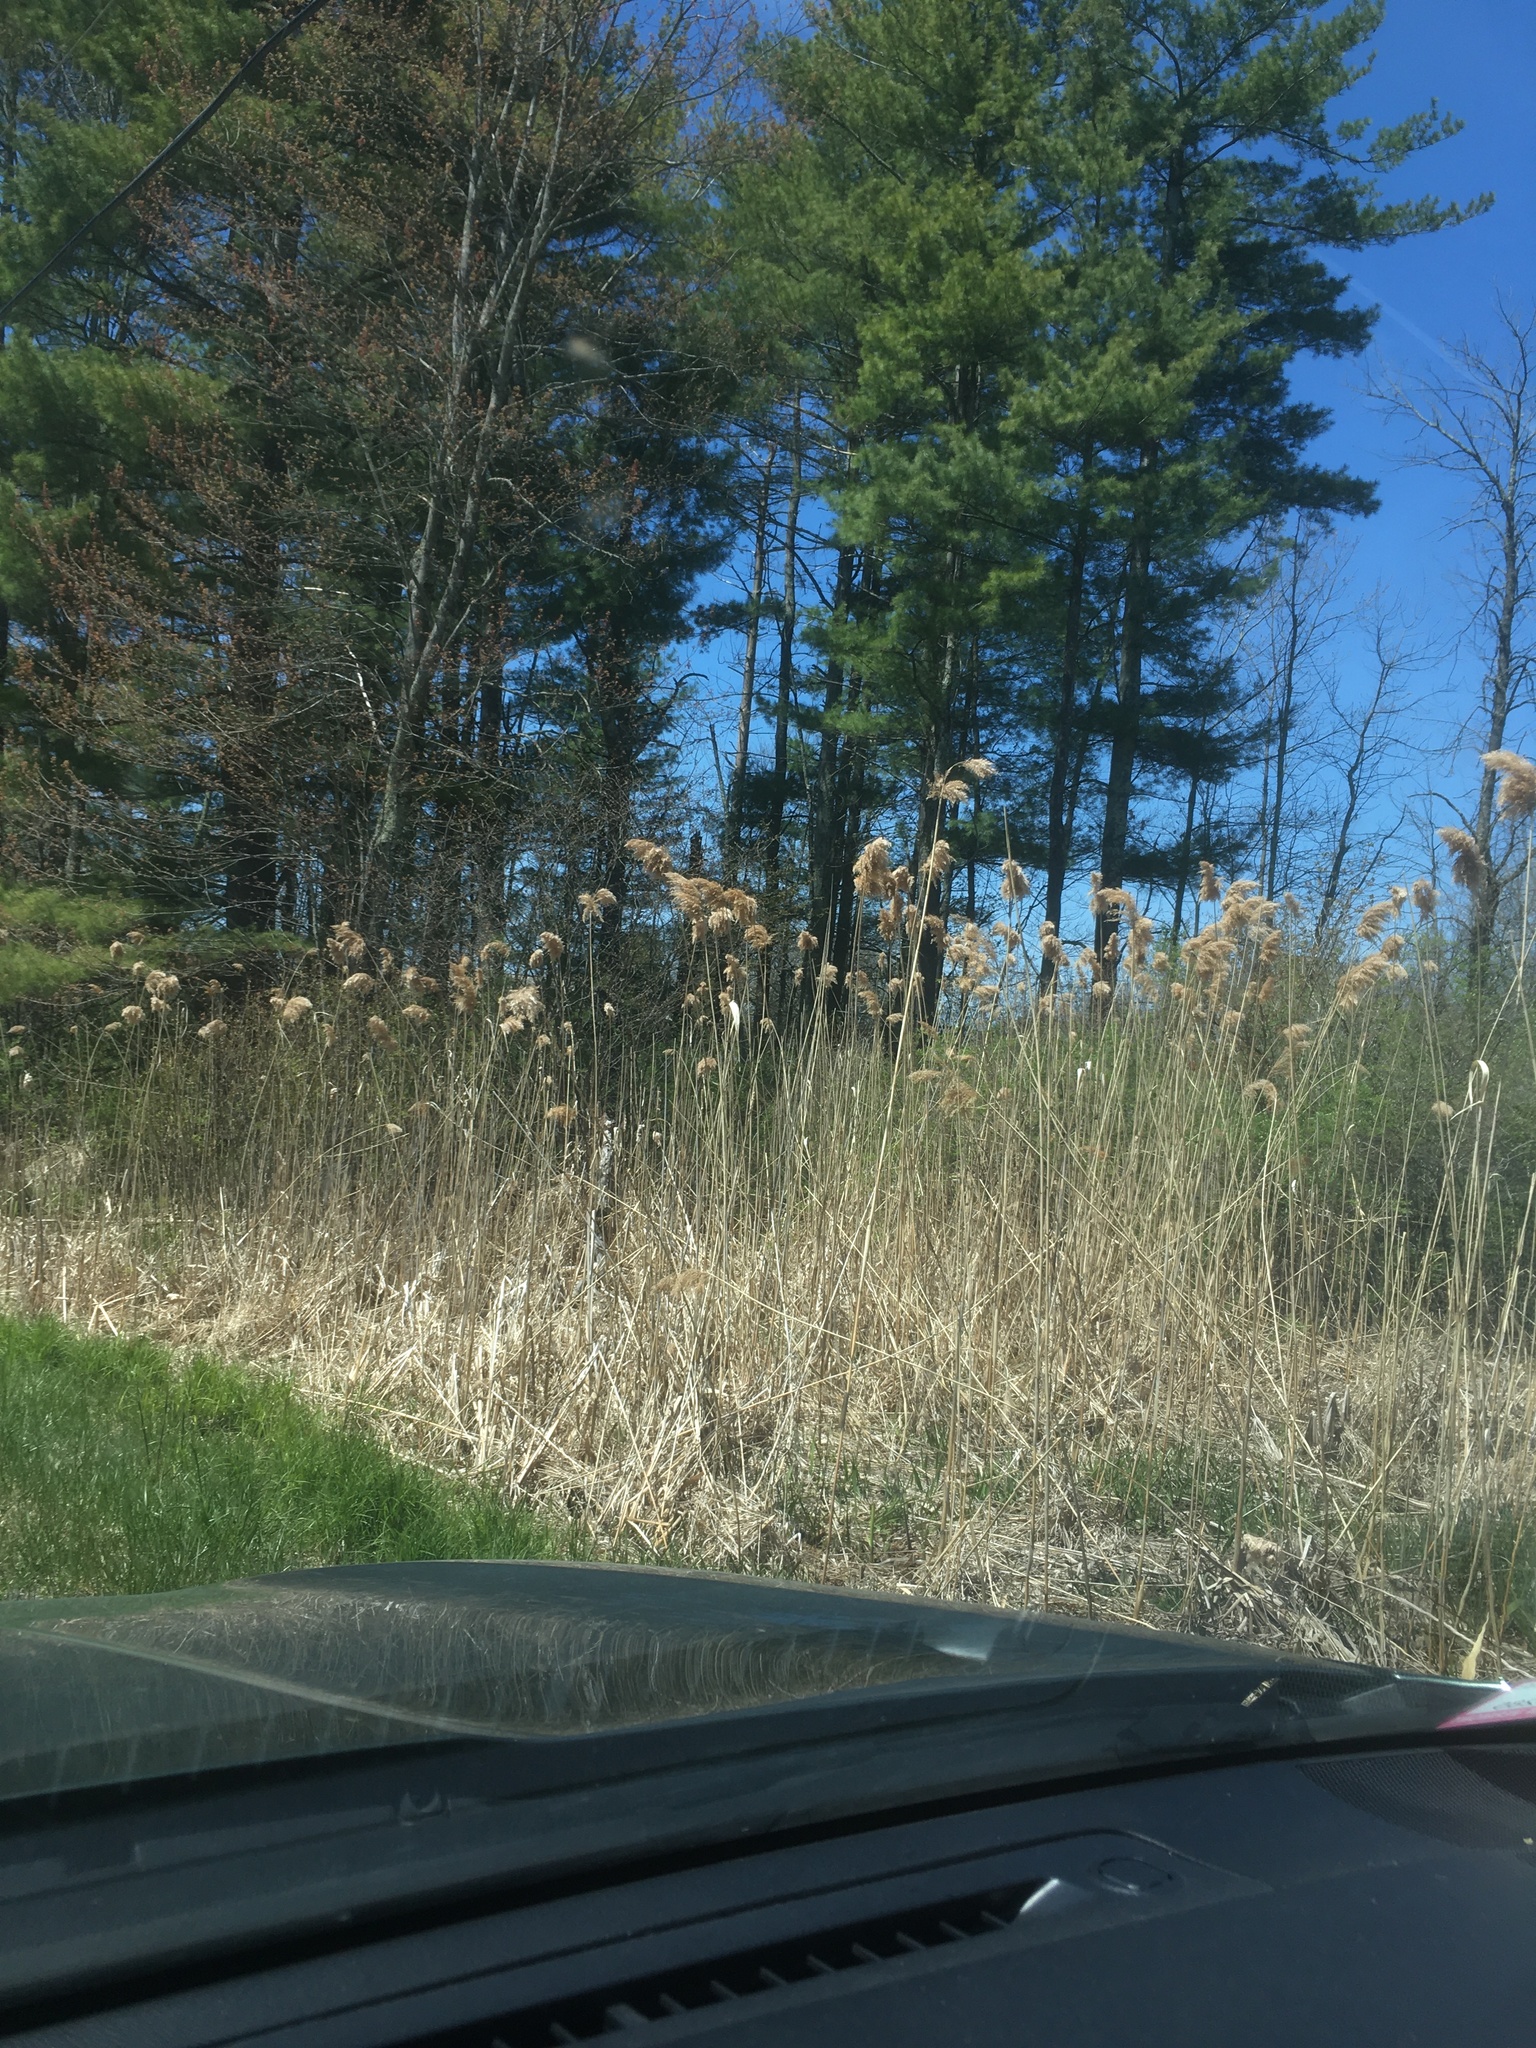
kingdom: Plantae
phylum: Tracheophyta
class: Liliopsida
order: Poales
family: Poaceae
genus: Phragmites
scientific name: Phragmites australis
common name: Common reed
